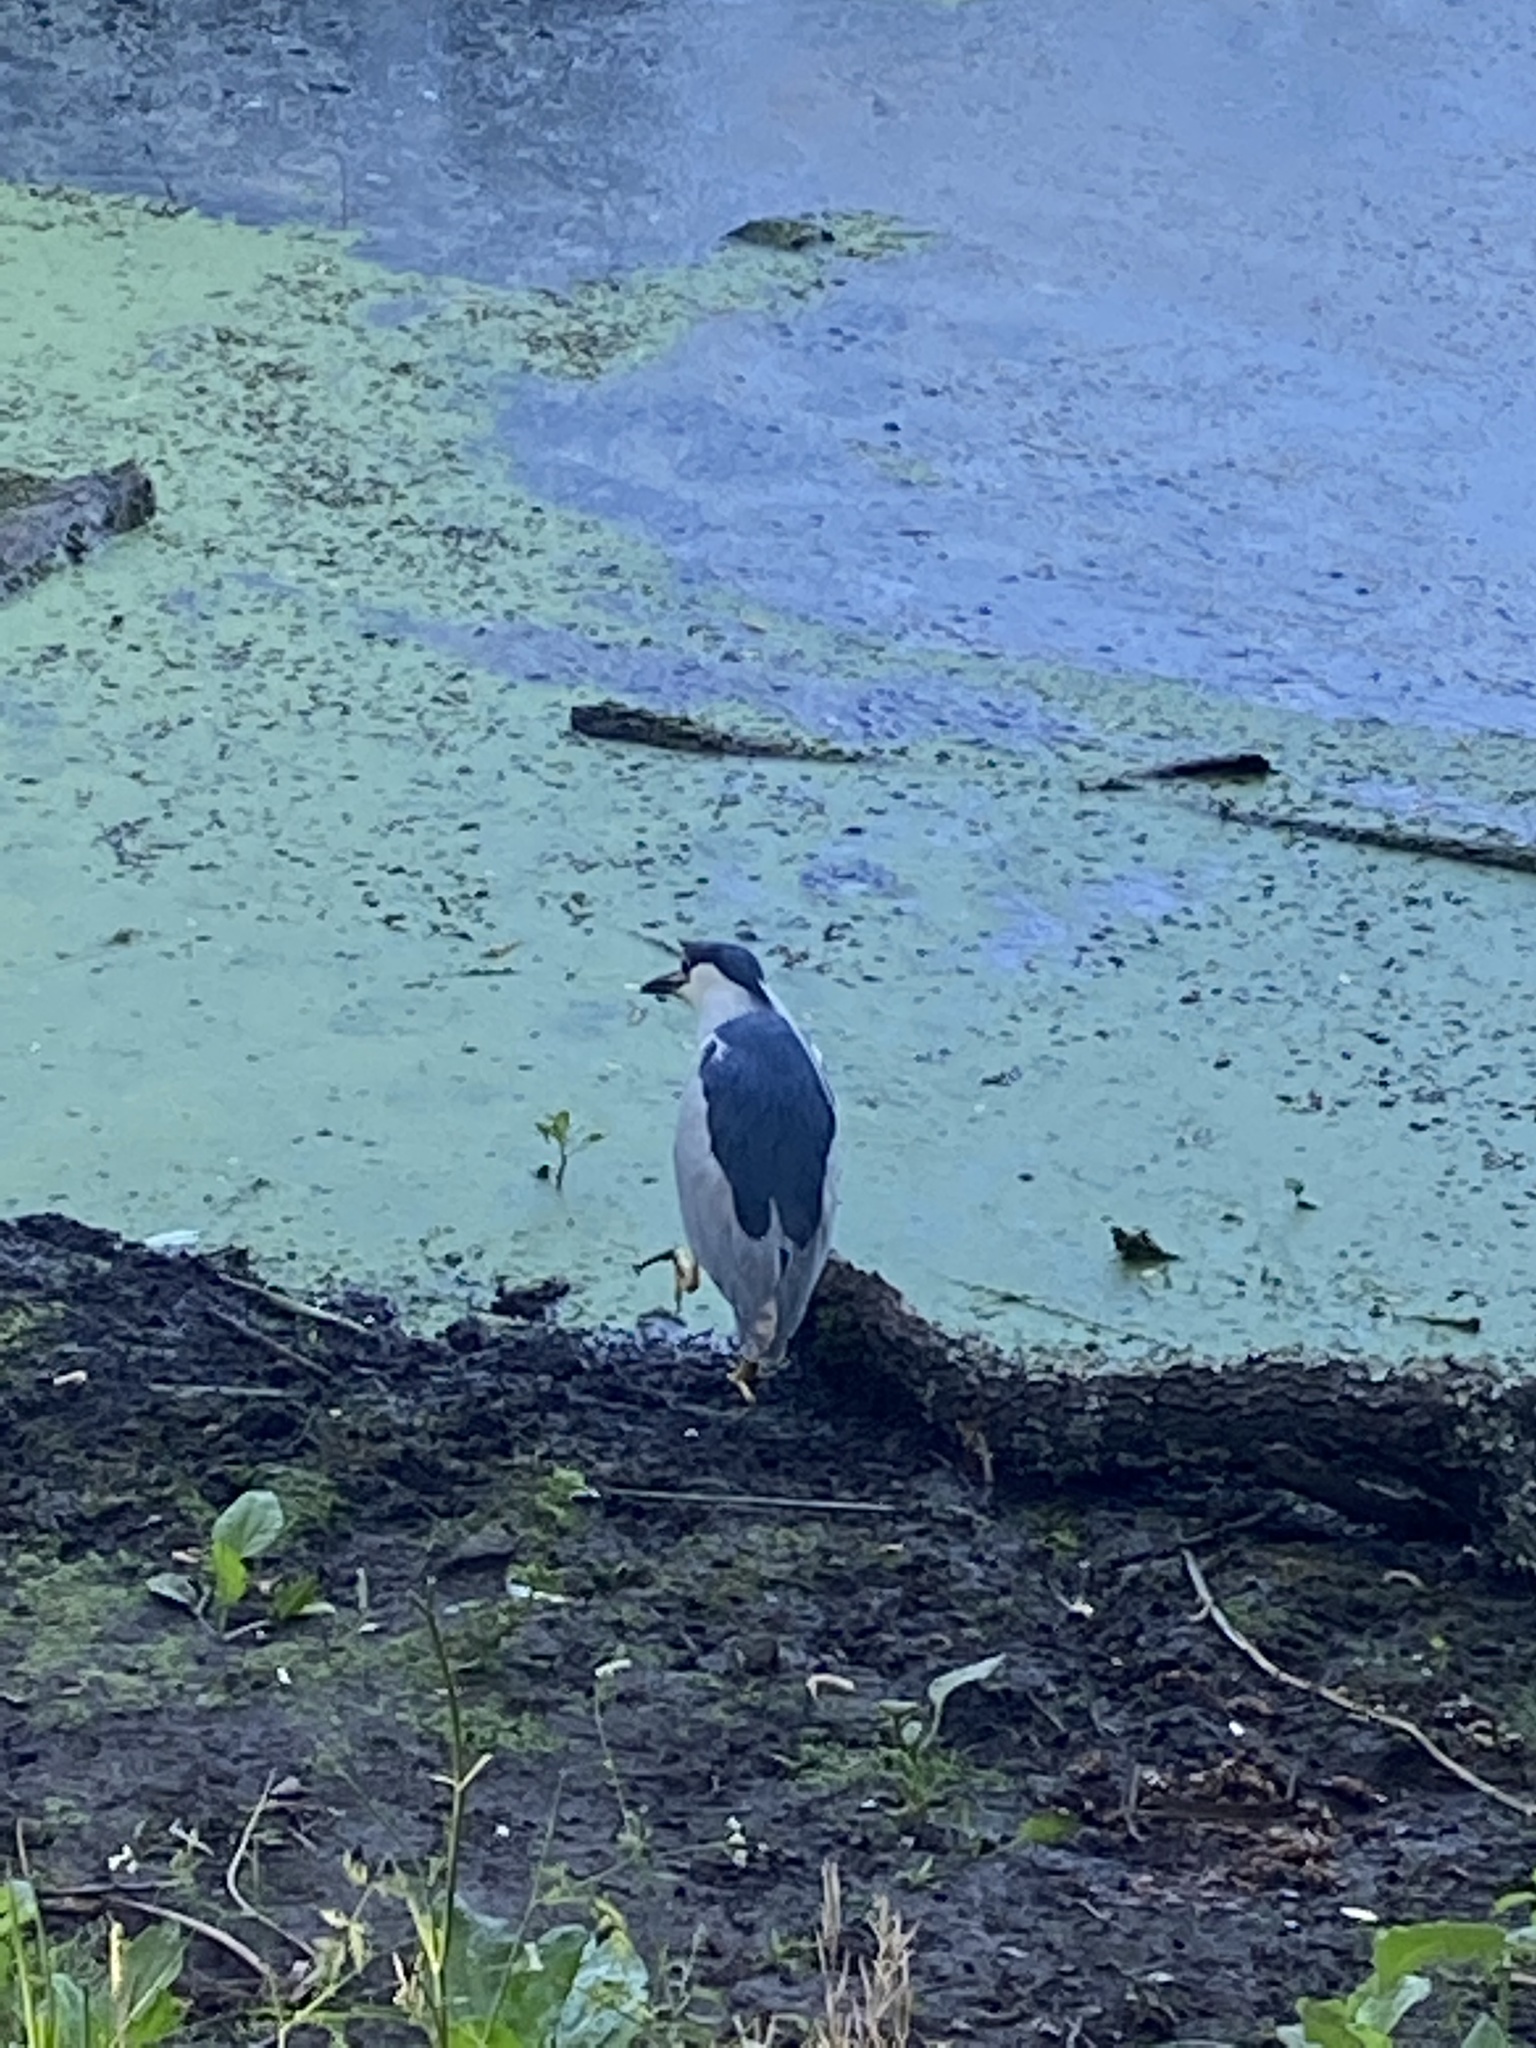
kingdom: Animalia
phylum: Chordata
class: Aves
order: Pelecaniformes
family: Ardeidae
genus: Nycticorax
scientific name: Nycticorax nycticorax
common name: Black-crowned night heron
